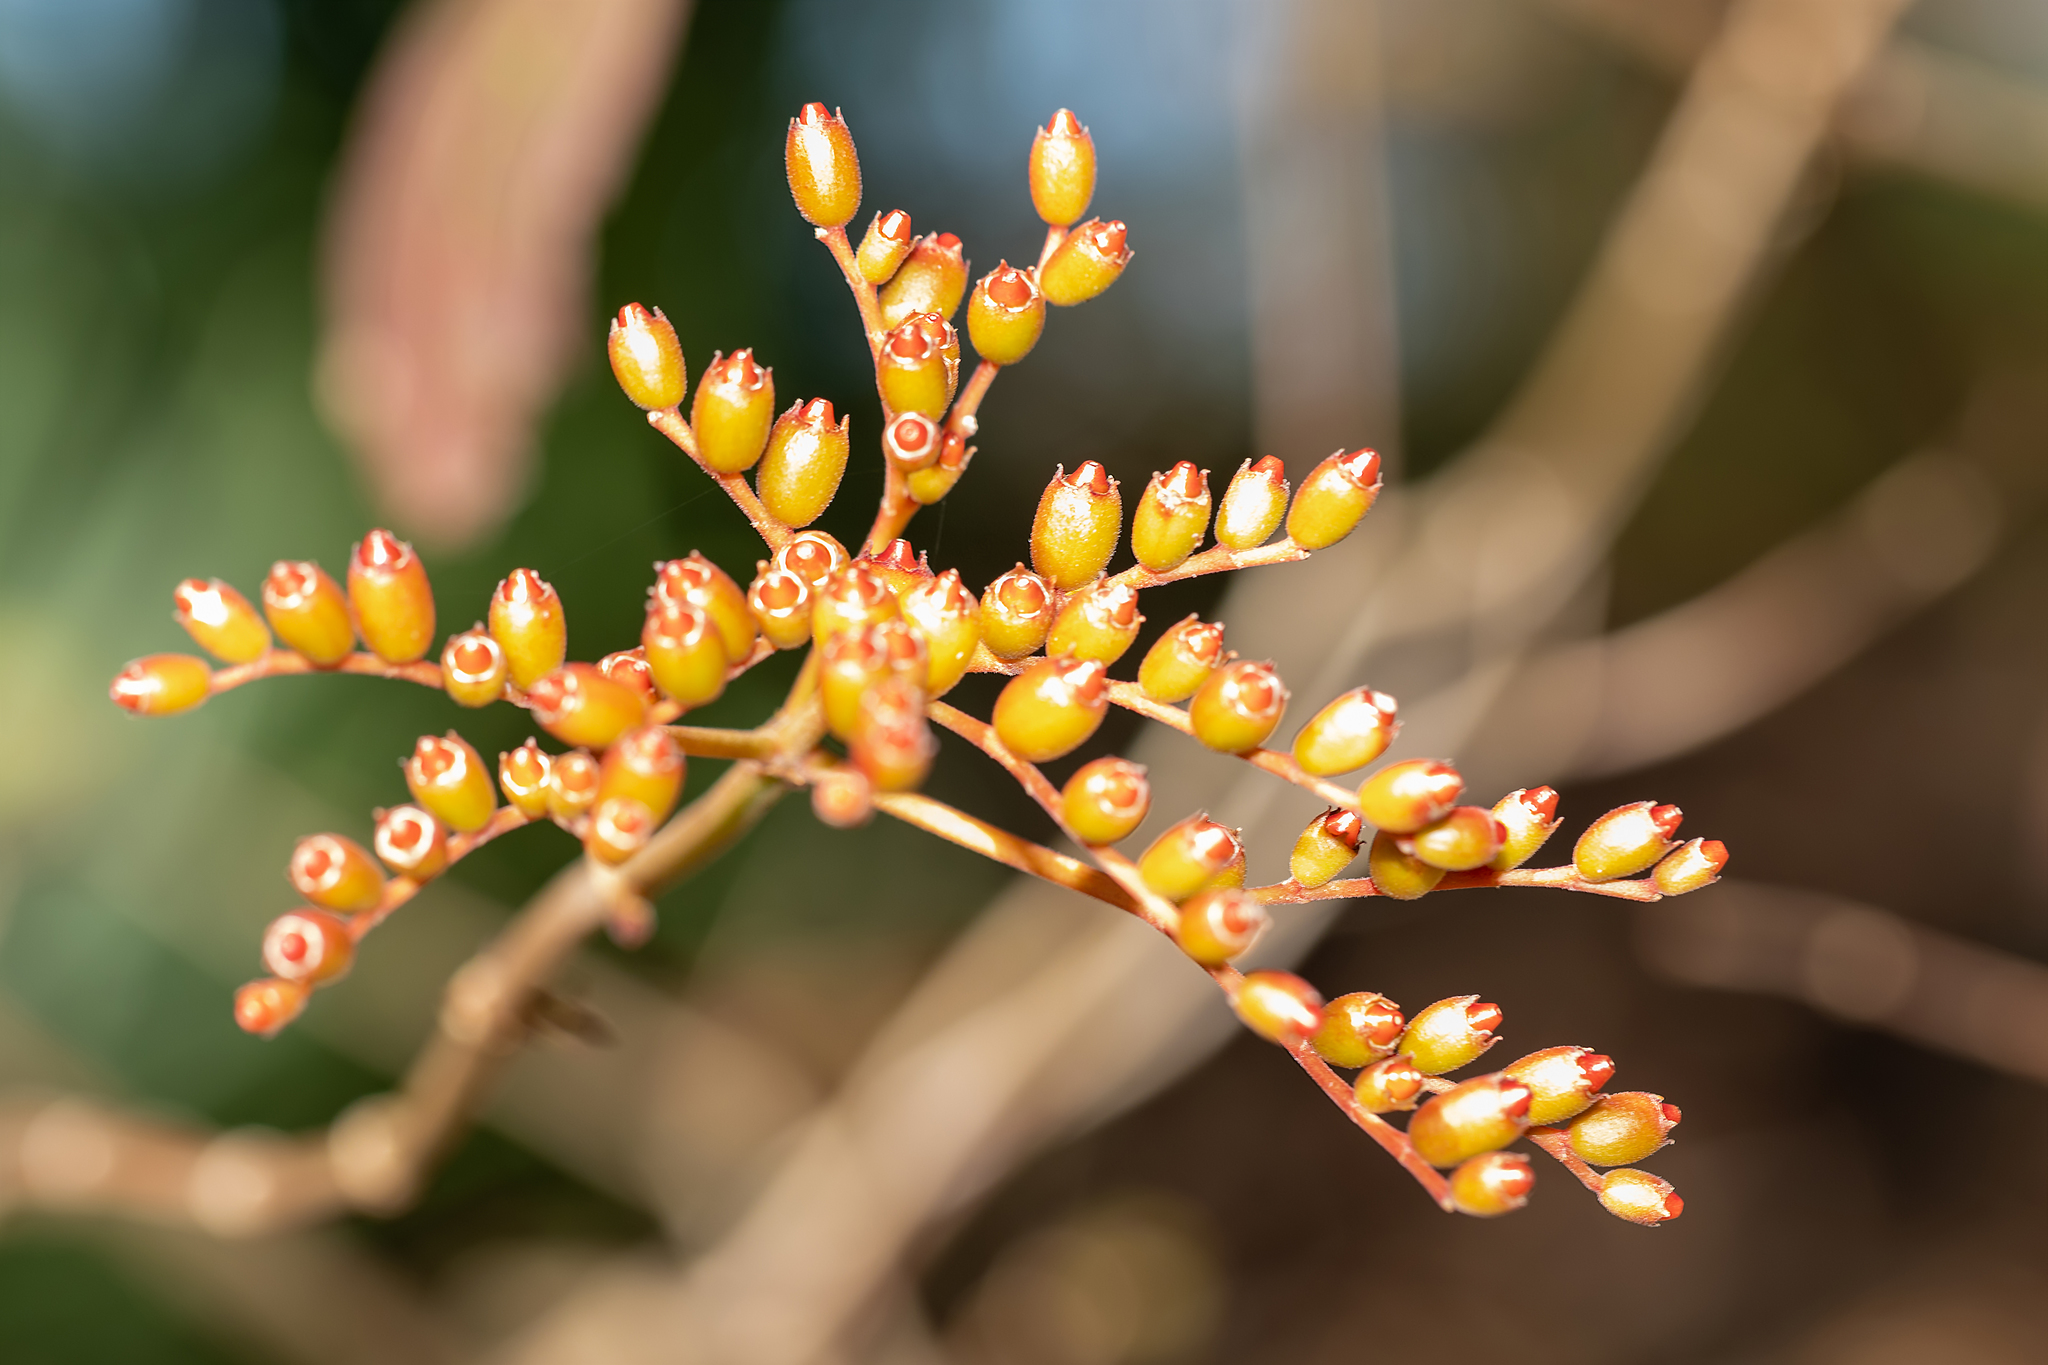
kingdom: Plantae
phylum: Tracheophyta
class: Magnoliopsida
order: Gentianales
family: Rubiaceae
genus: Hamelia
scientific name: Hamelia patens
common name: Redhead
